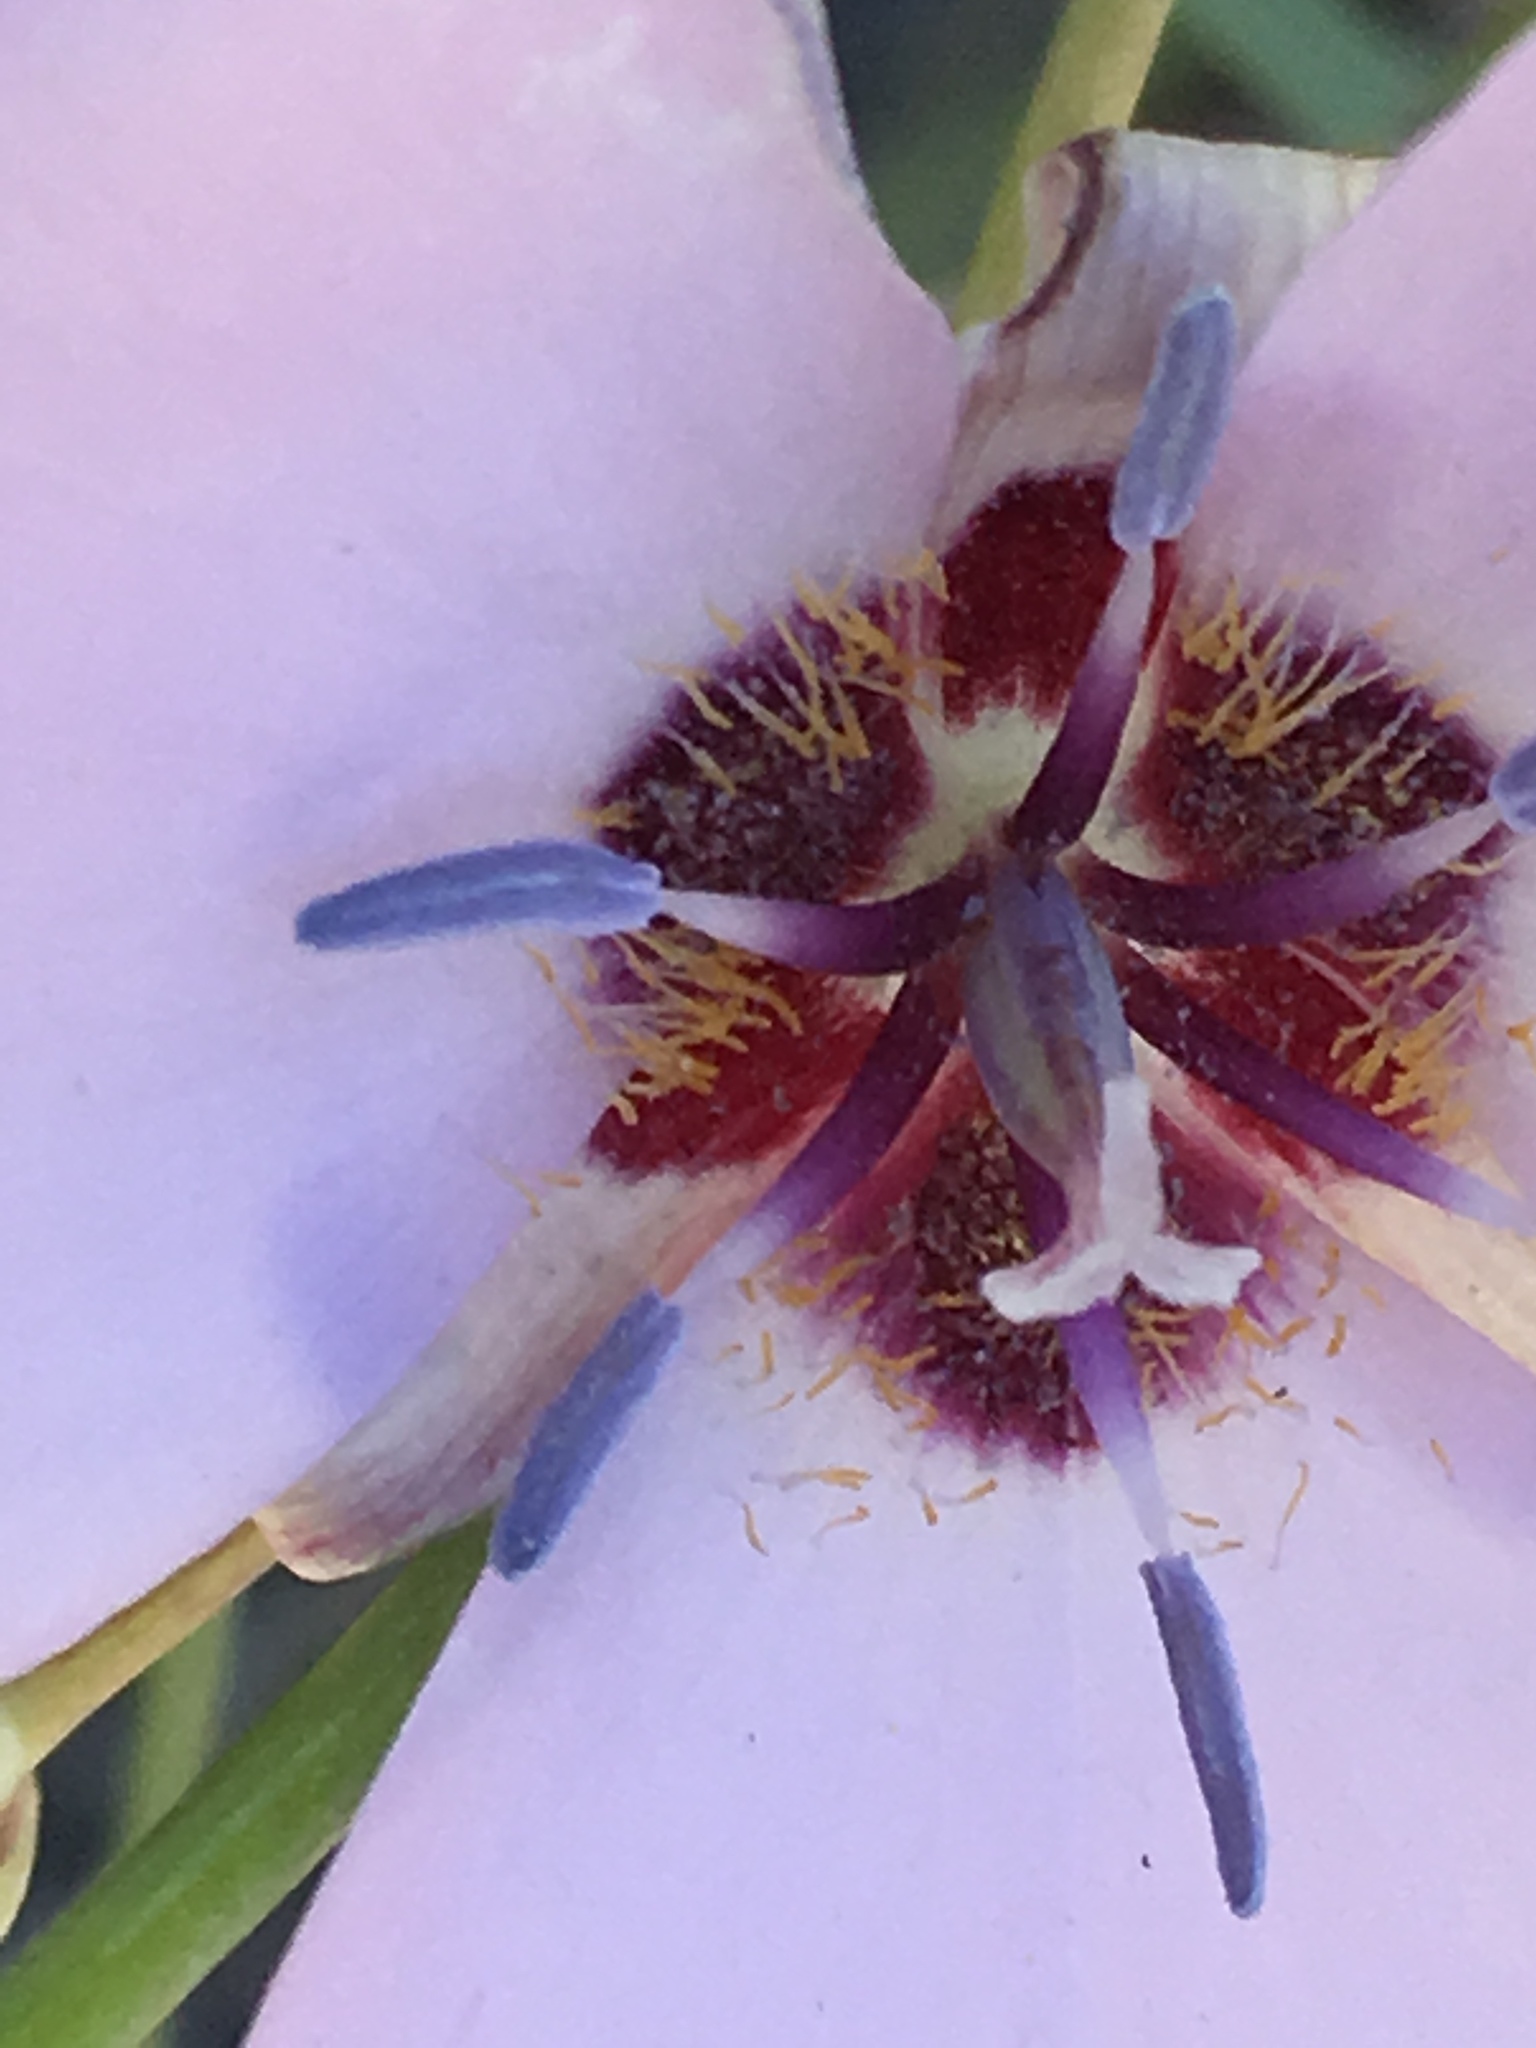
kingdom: Plantae
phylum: Tracheophyta
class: Liliopsida
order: Liliales
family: Liliaceae
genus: Calochortus
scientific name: Calochortus palmeri
